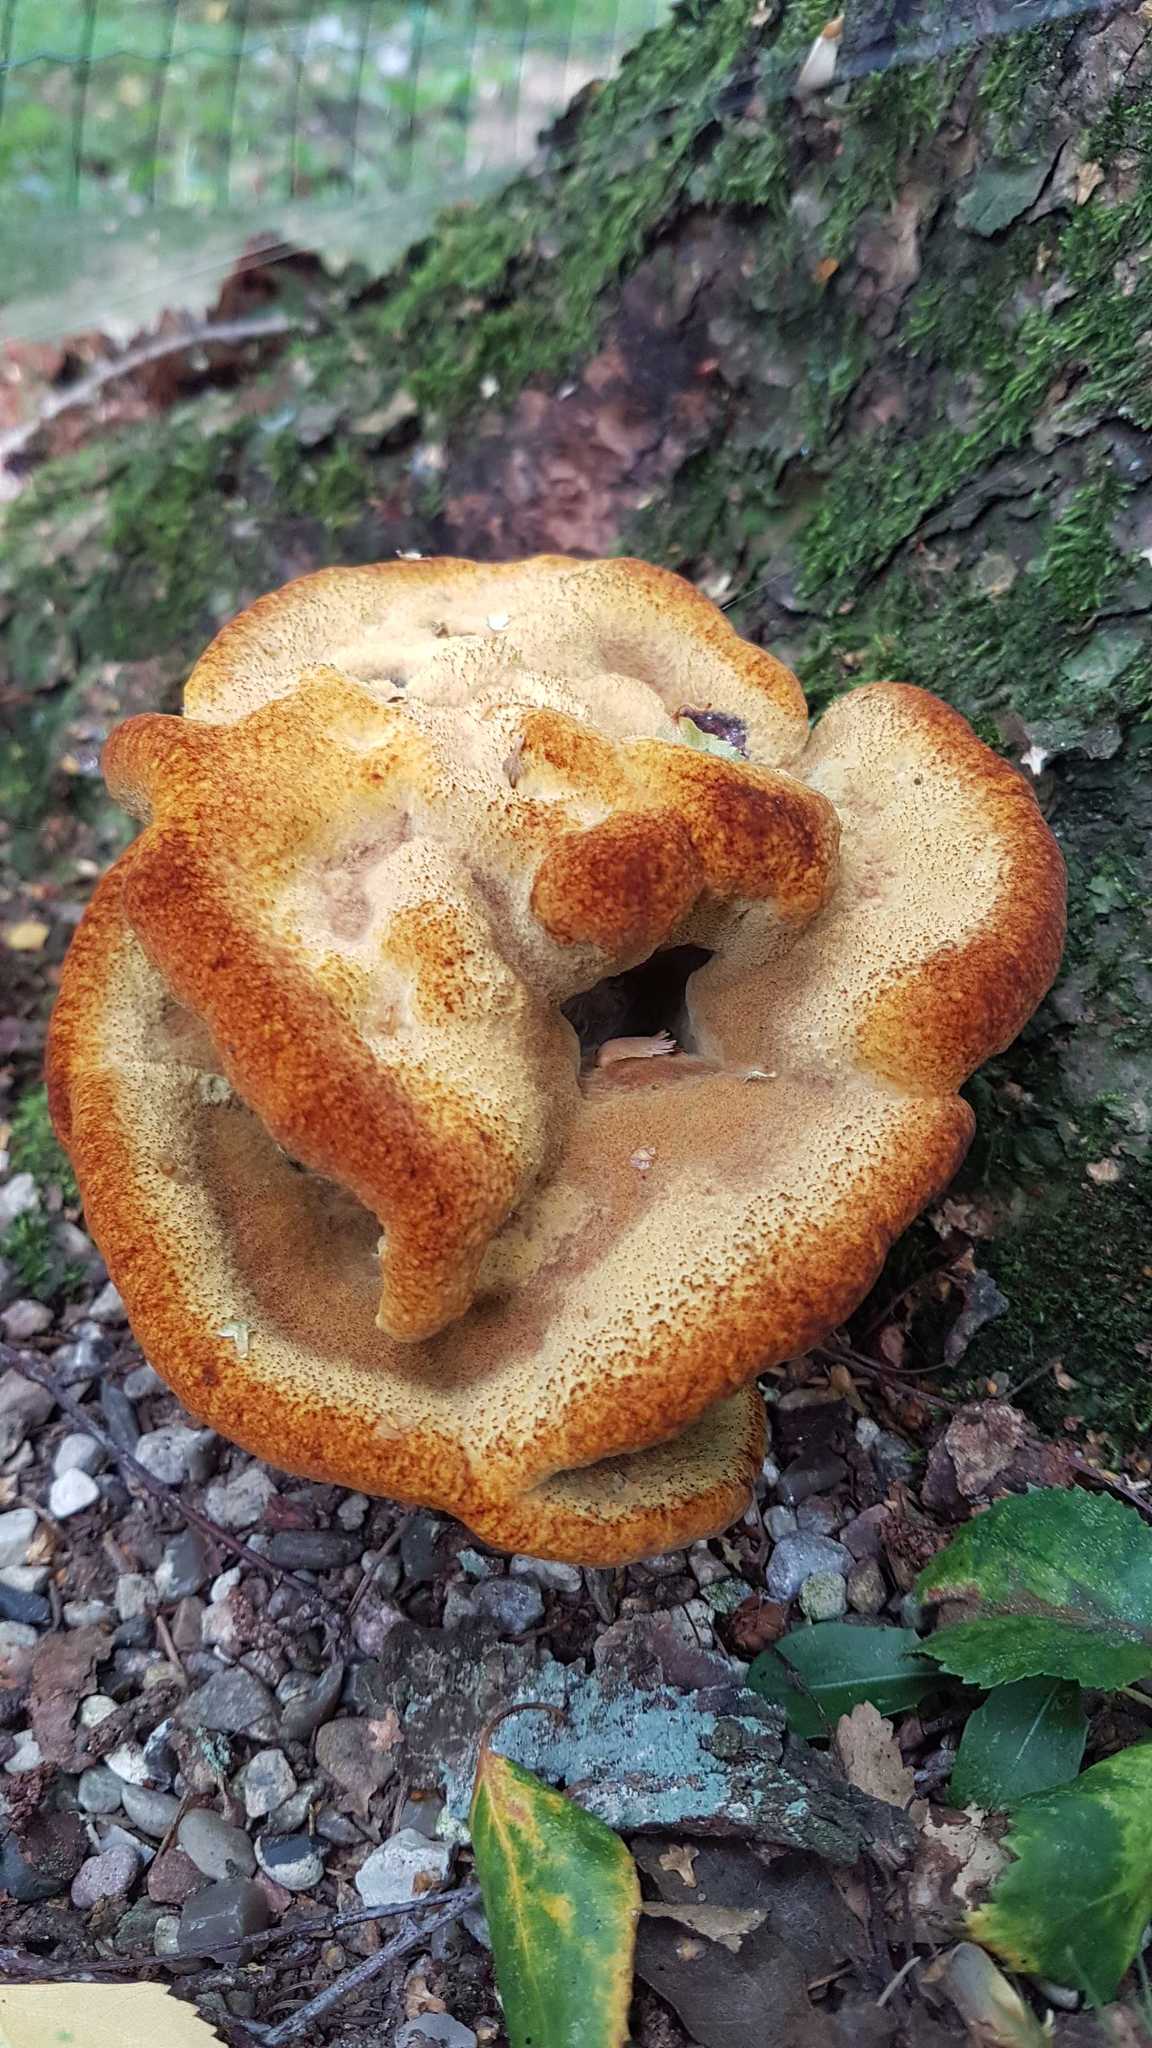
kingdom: Fungi
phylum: Basidiomycota
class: Agaricomycetes
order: Polyporales
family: Laetiporaceae
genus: Phaeolus
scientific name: Phaeolus schweinitzii
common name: Dyer's mazegill
